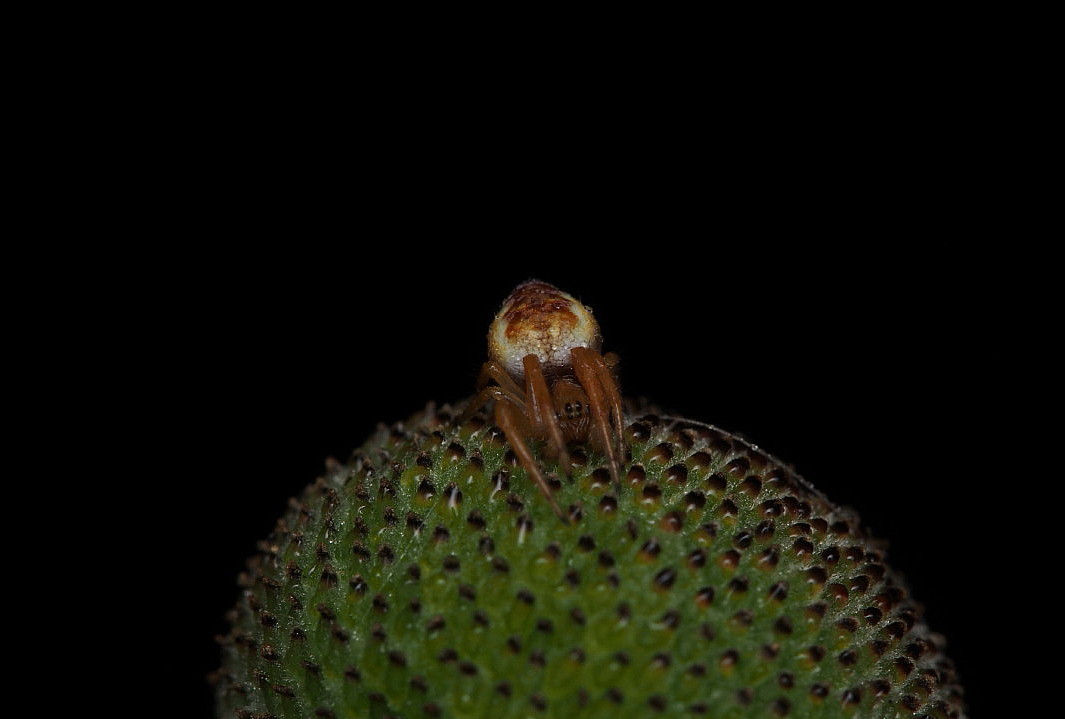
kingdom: Animalia
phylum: Arthropoda
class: Arachnida
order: Araneae
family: Araneidae
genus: Salsa
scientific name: Salsa fuliginata
